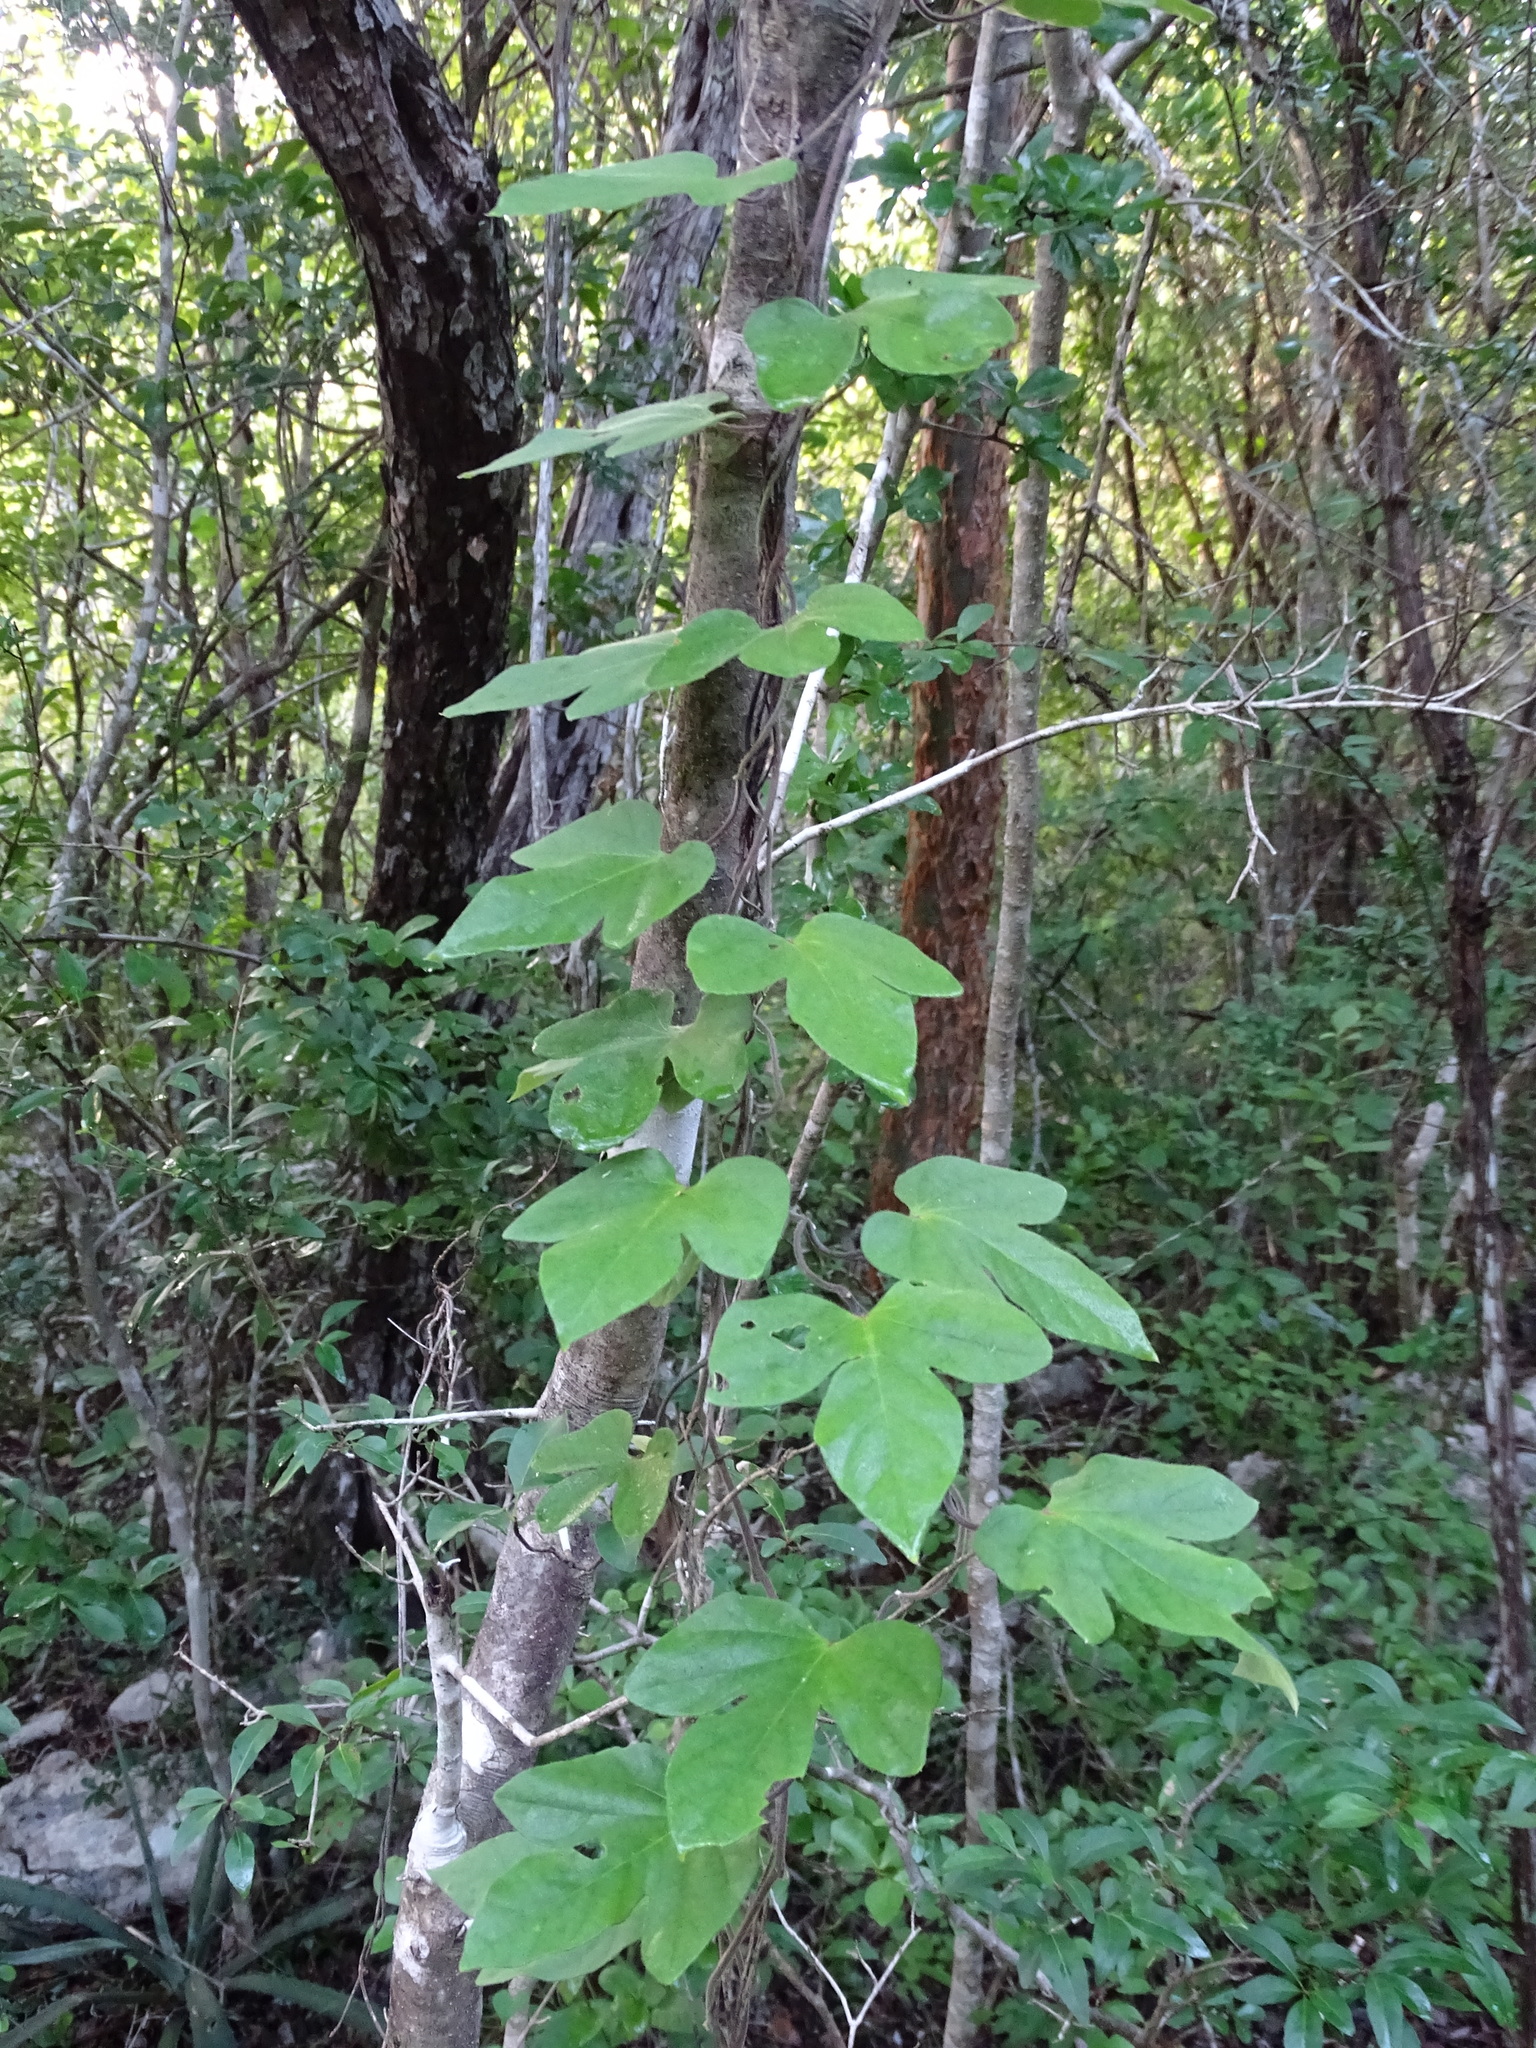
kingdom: Plantae
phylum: Tracheophyta
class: Magnoliopsida
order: Solanales
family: Convolvulaceae
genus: Ipomoea
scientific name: Ipomoea peteri
